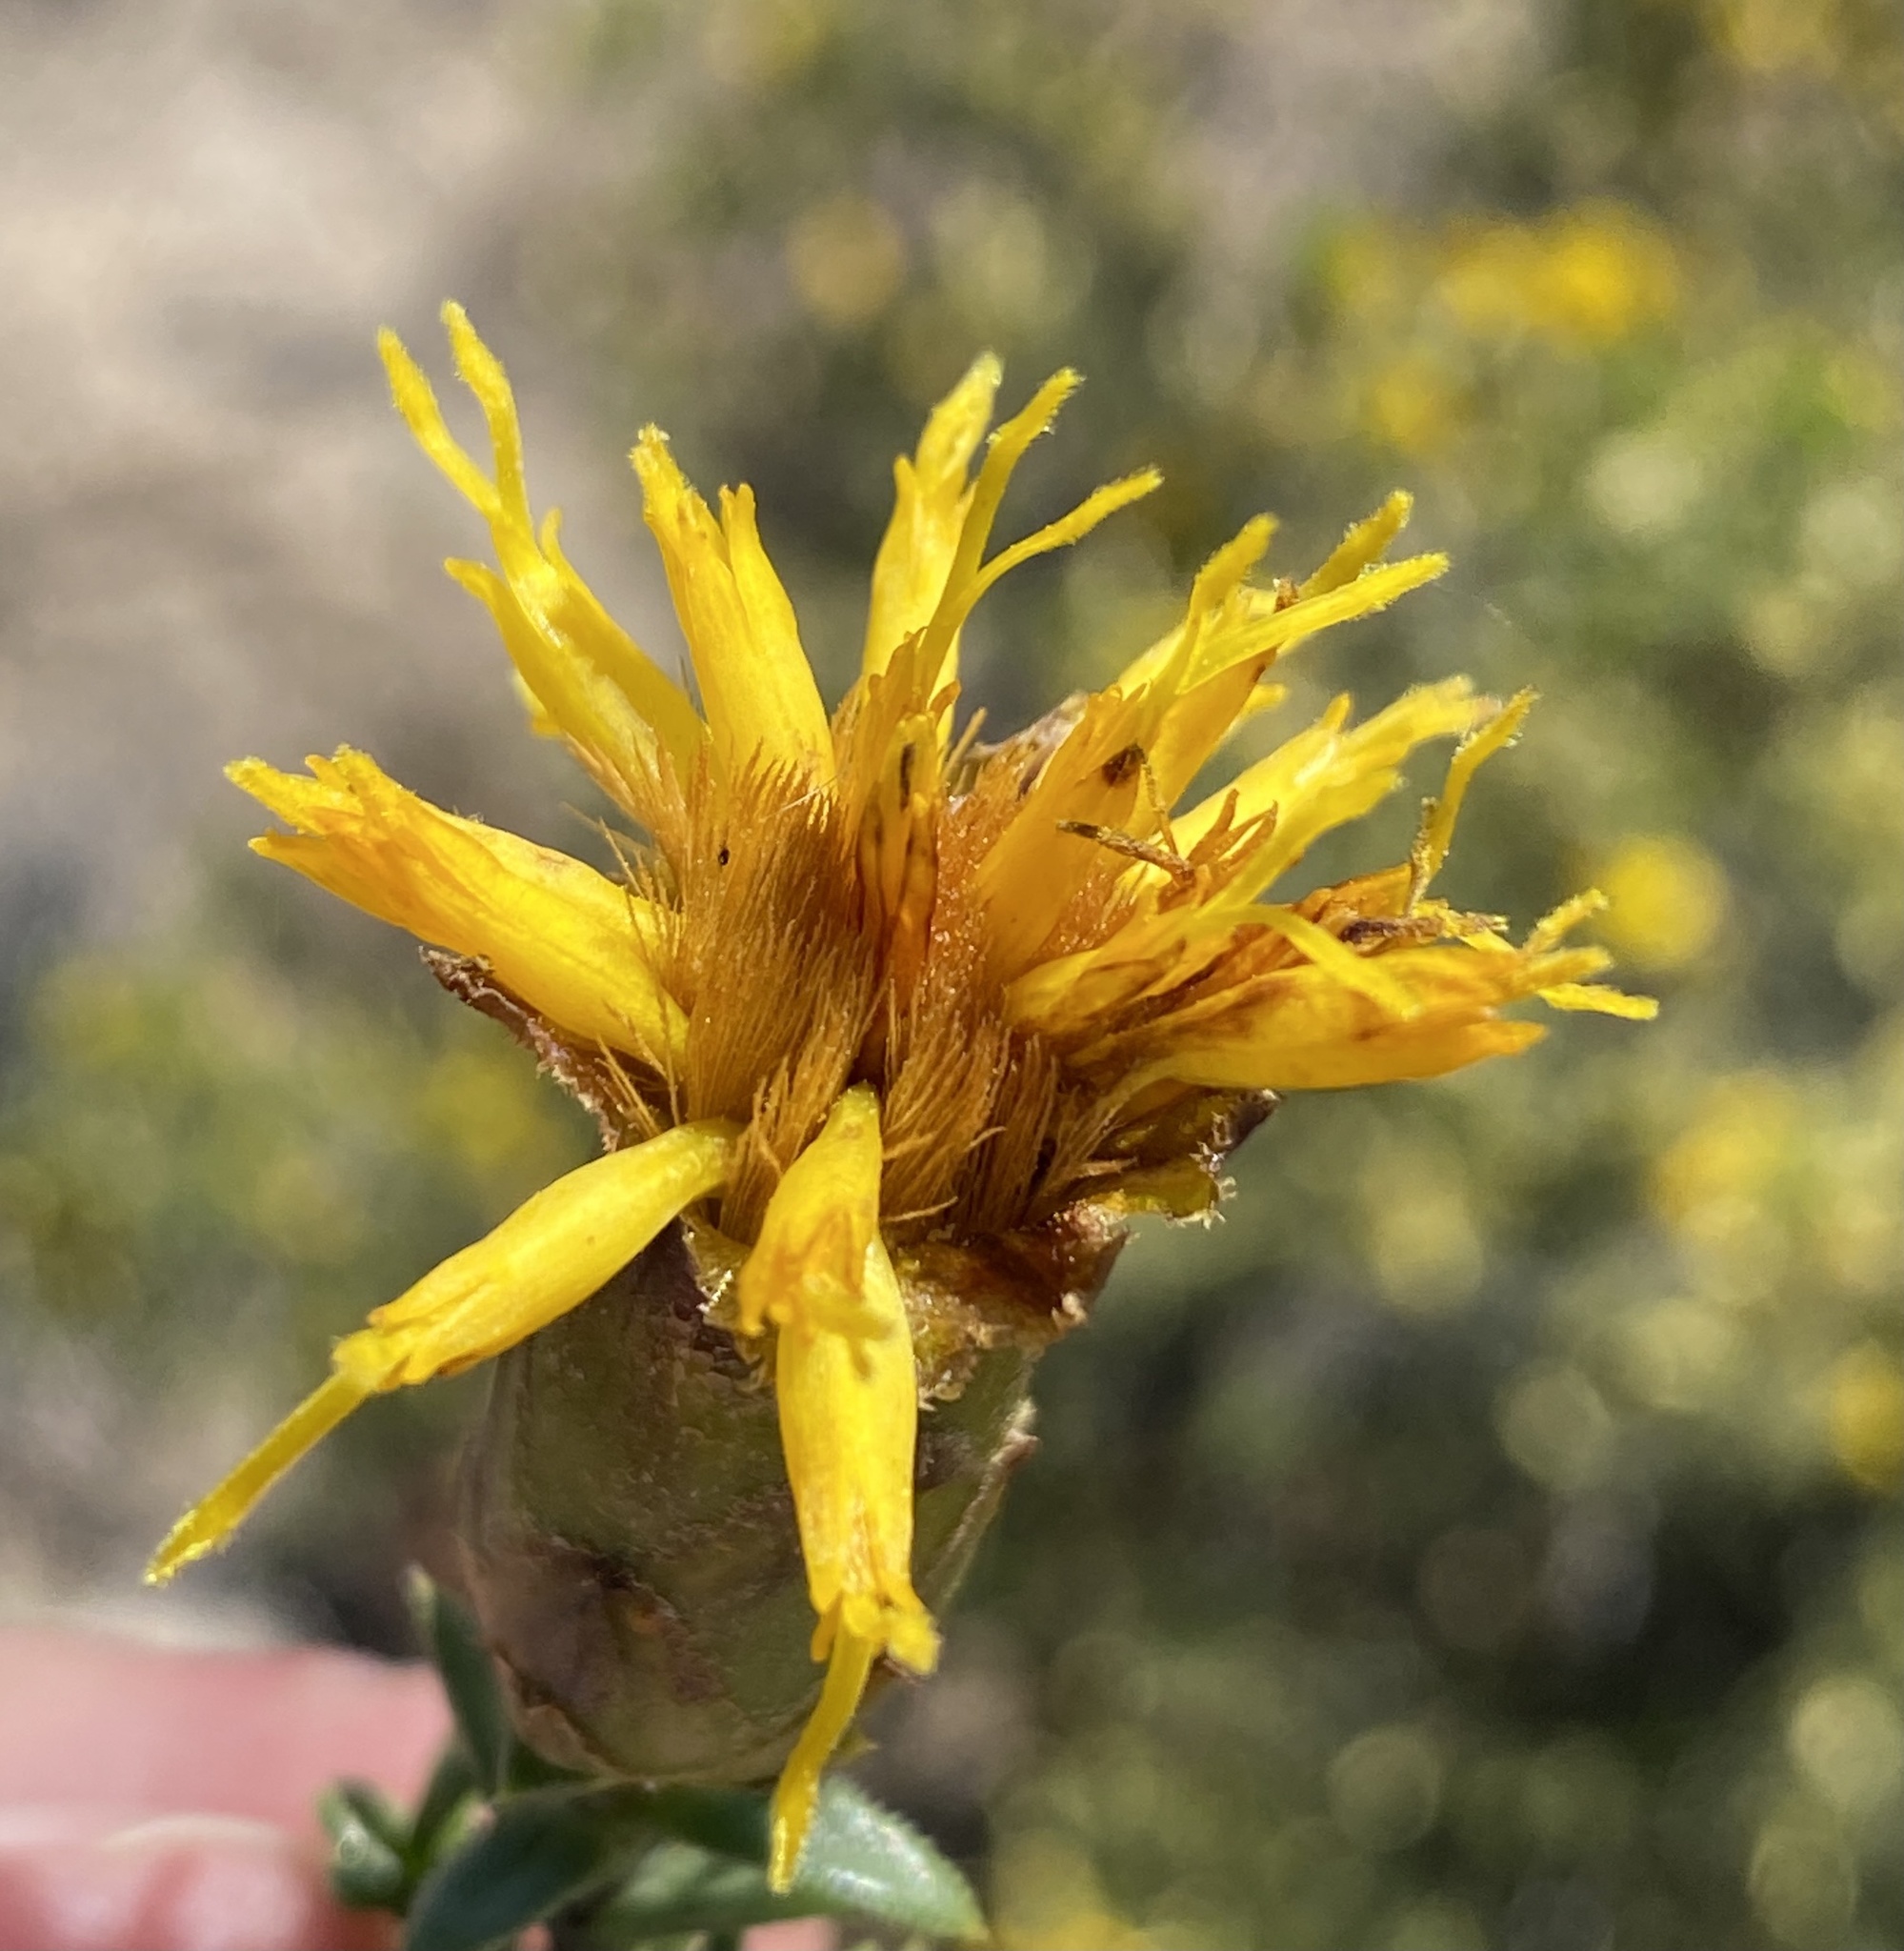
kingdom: Plantae
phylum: Tracheophyta
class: Magnoliopsida
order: Asterales
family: Asteraceae
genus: Pteronia
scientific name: Pteronia elongata
